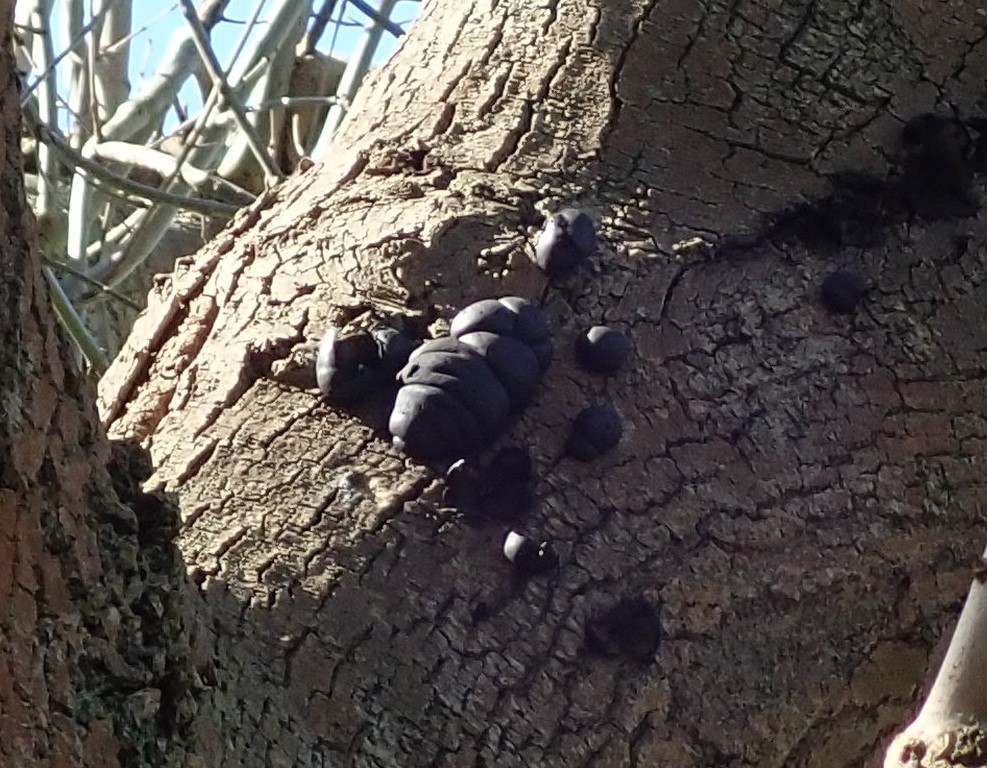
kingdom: Fungi
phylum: Ascomycota
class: Sordariomycetes
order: Xylariales
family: Hypoxylaceae
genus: Daldinia
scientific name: Daldinia concentrica
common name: Cramp balls
